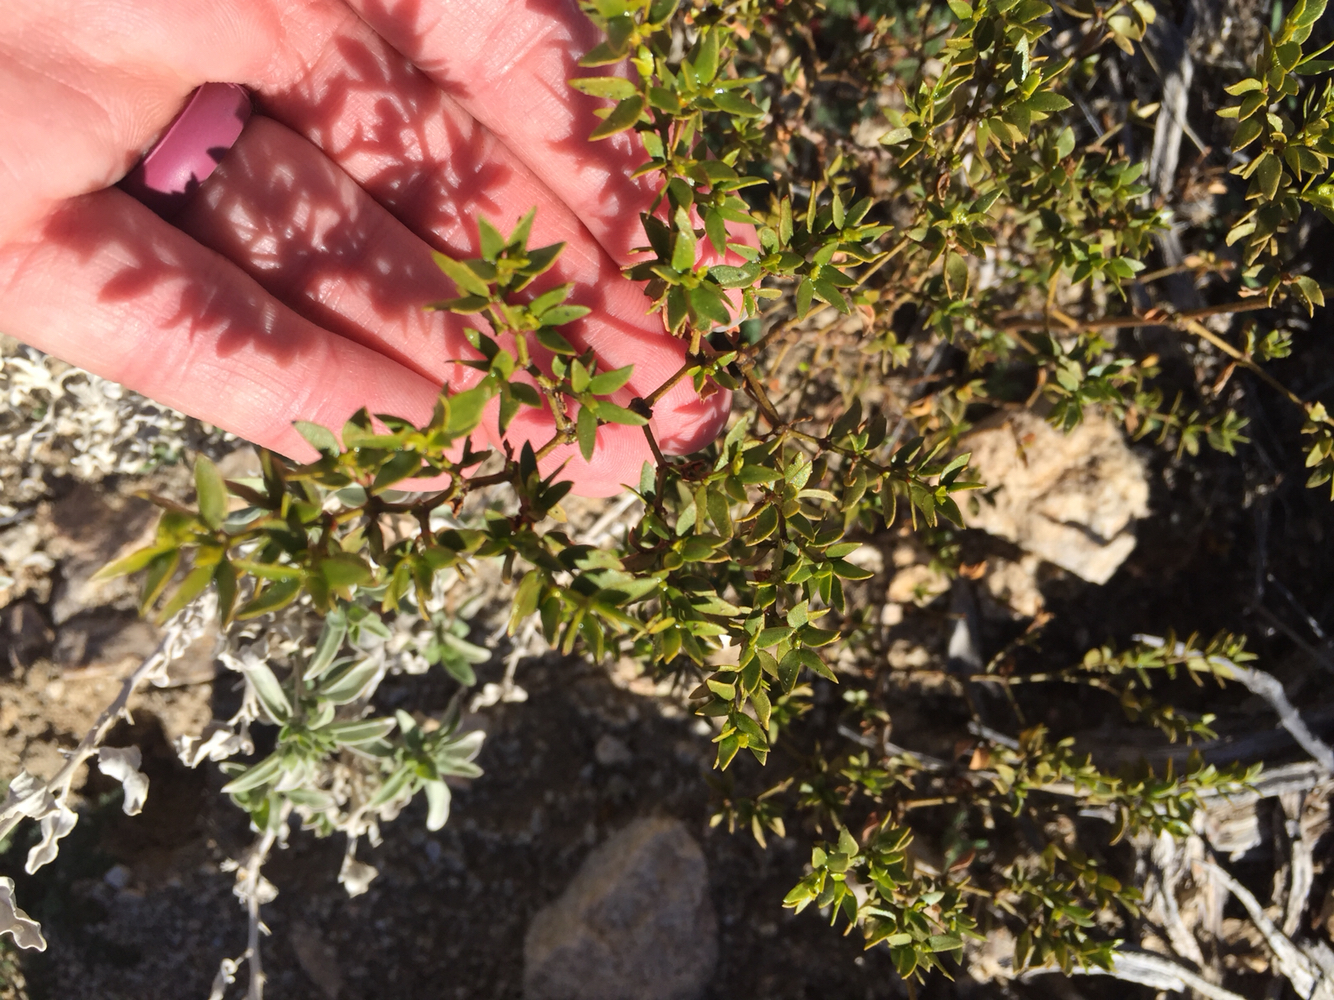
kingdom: Plantae
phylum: Tracheophyta
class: Magnoliopsida
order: Zygophyllales
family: Zygophyllaceae
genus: Larrea
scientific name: Larrea tridentata
